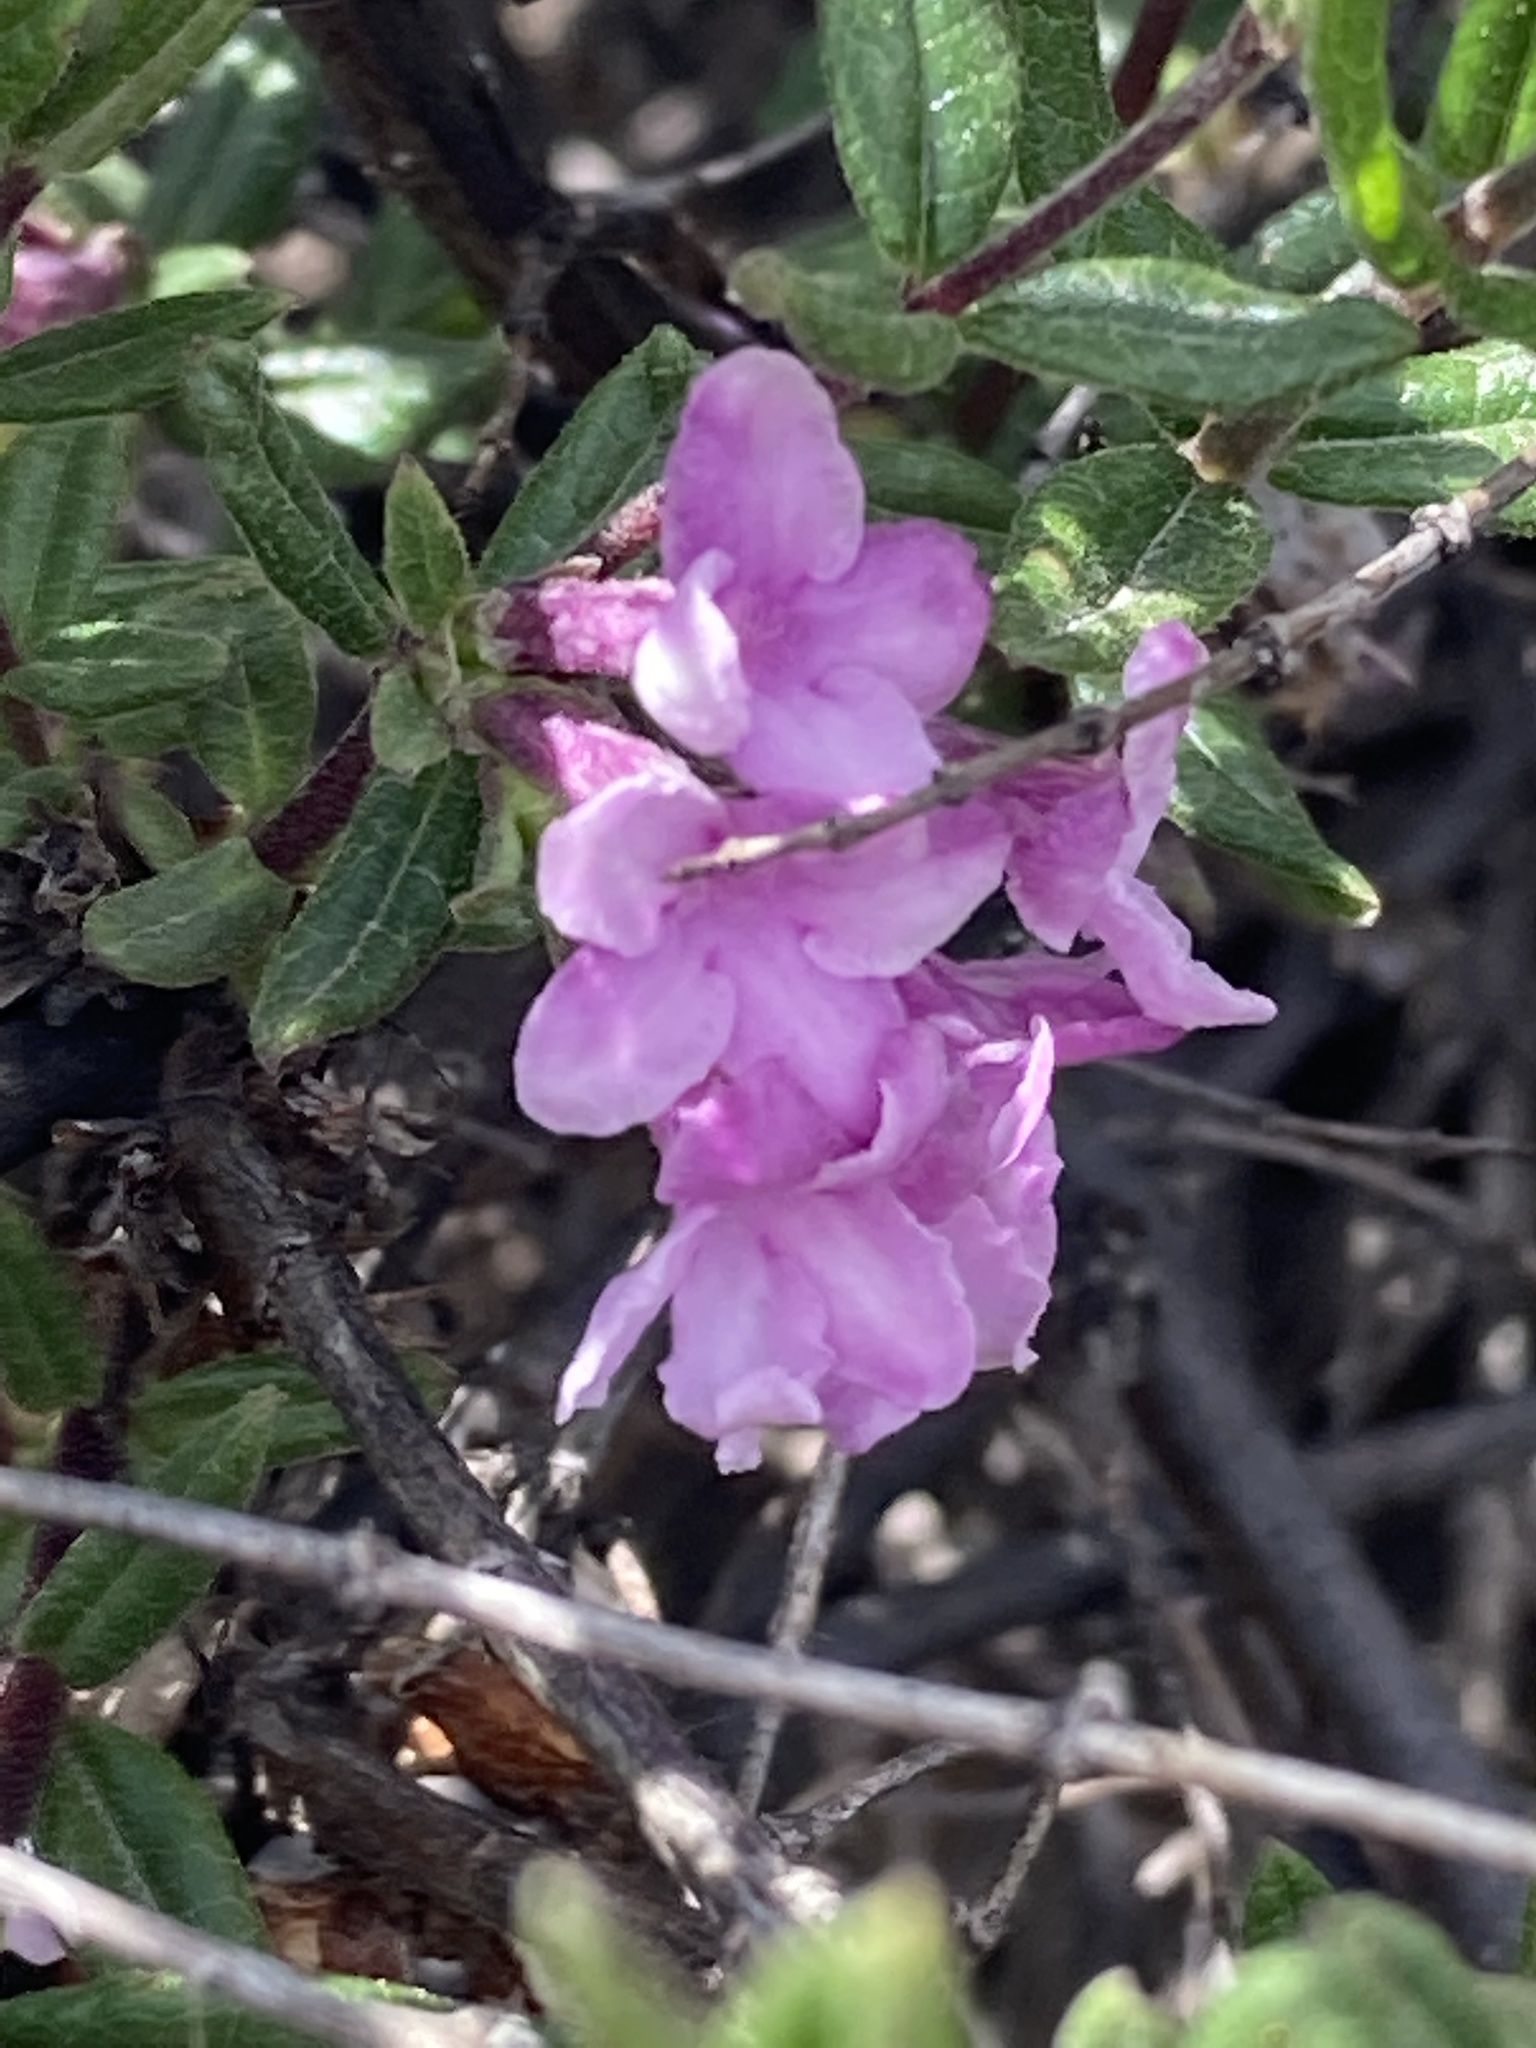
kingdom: Plantae
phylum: Tracheophyta
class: Magnoliopsida
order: Dipsacales
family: Caprifoliaceae
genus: Lonicera
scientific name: Lonicera rupicola
